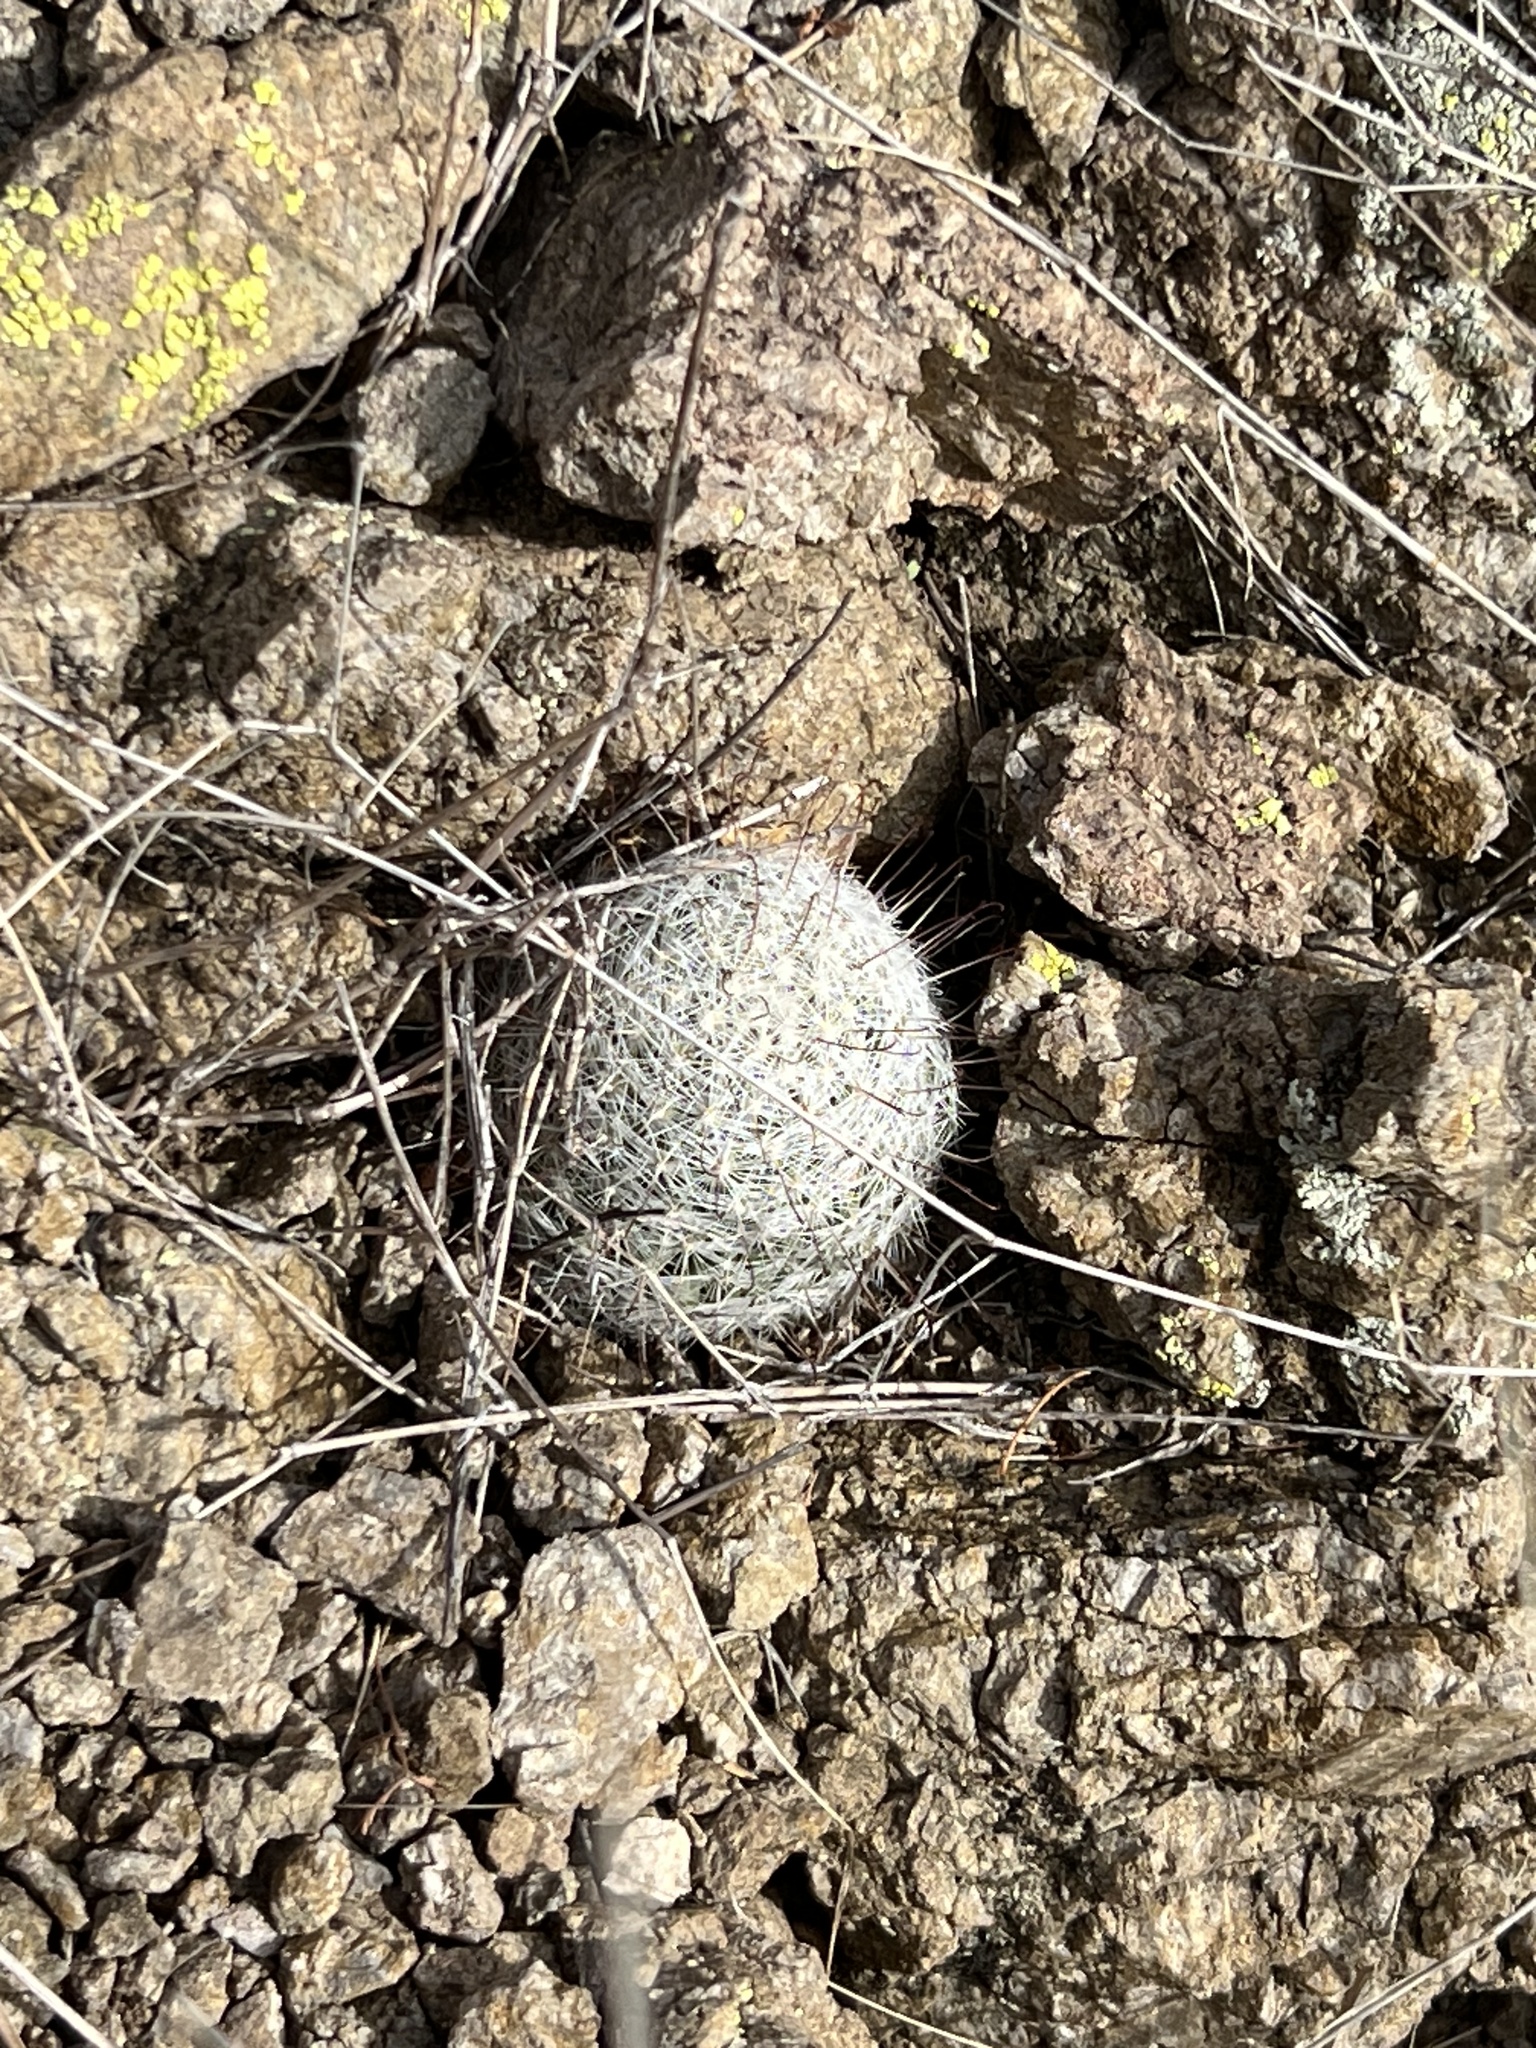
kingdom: Plantae
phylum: Tracheophyta
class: Magnoliopsida
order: Caryophyllales
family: Cactaceae
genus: Cochemiea
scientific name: Cochemiea grahamii
